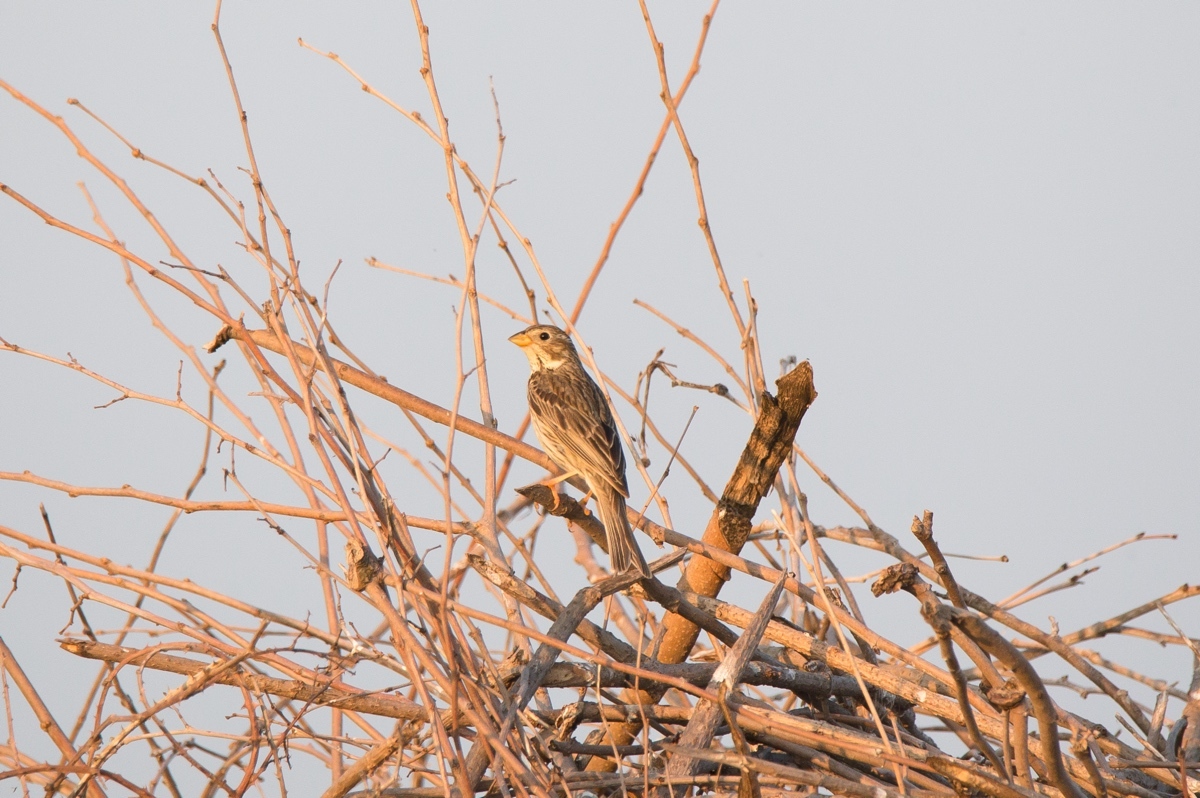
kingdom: Animalia
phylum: Chordata
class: Aves
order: Passeriformes
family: Emberizidae
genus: Emberiza
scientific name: Emberiza calandra
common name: Corn bunting
